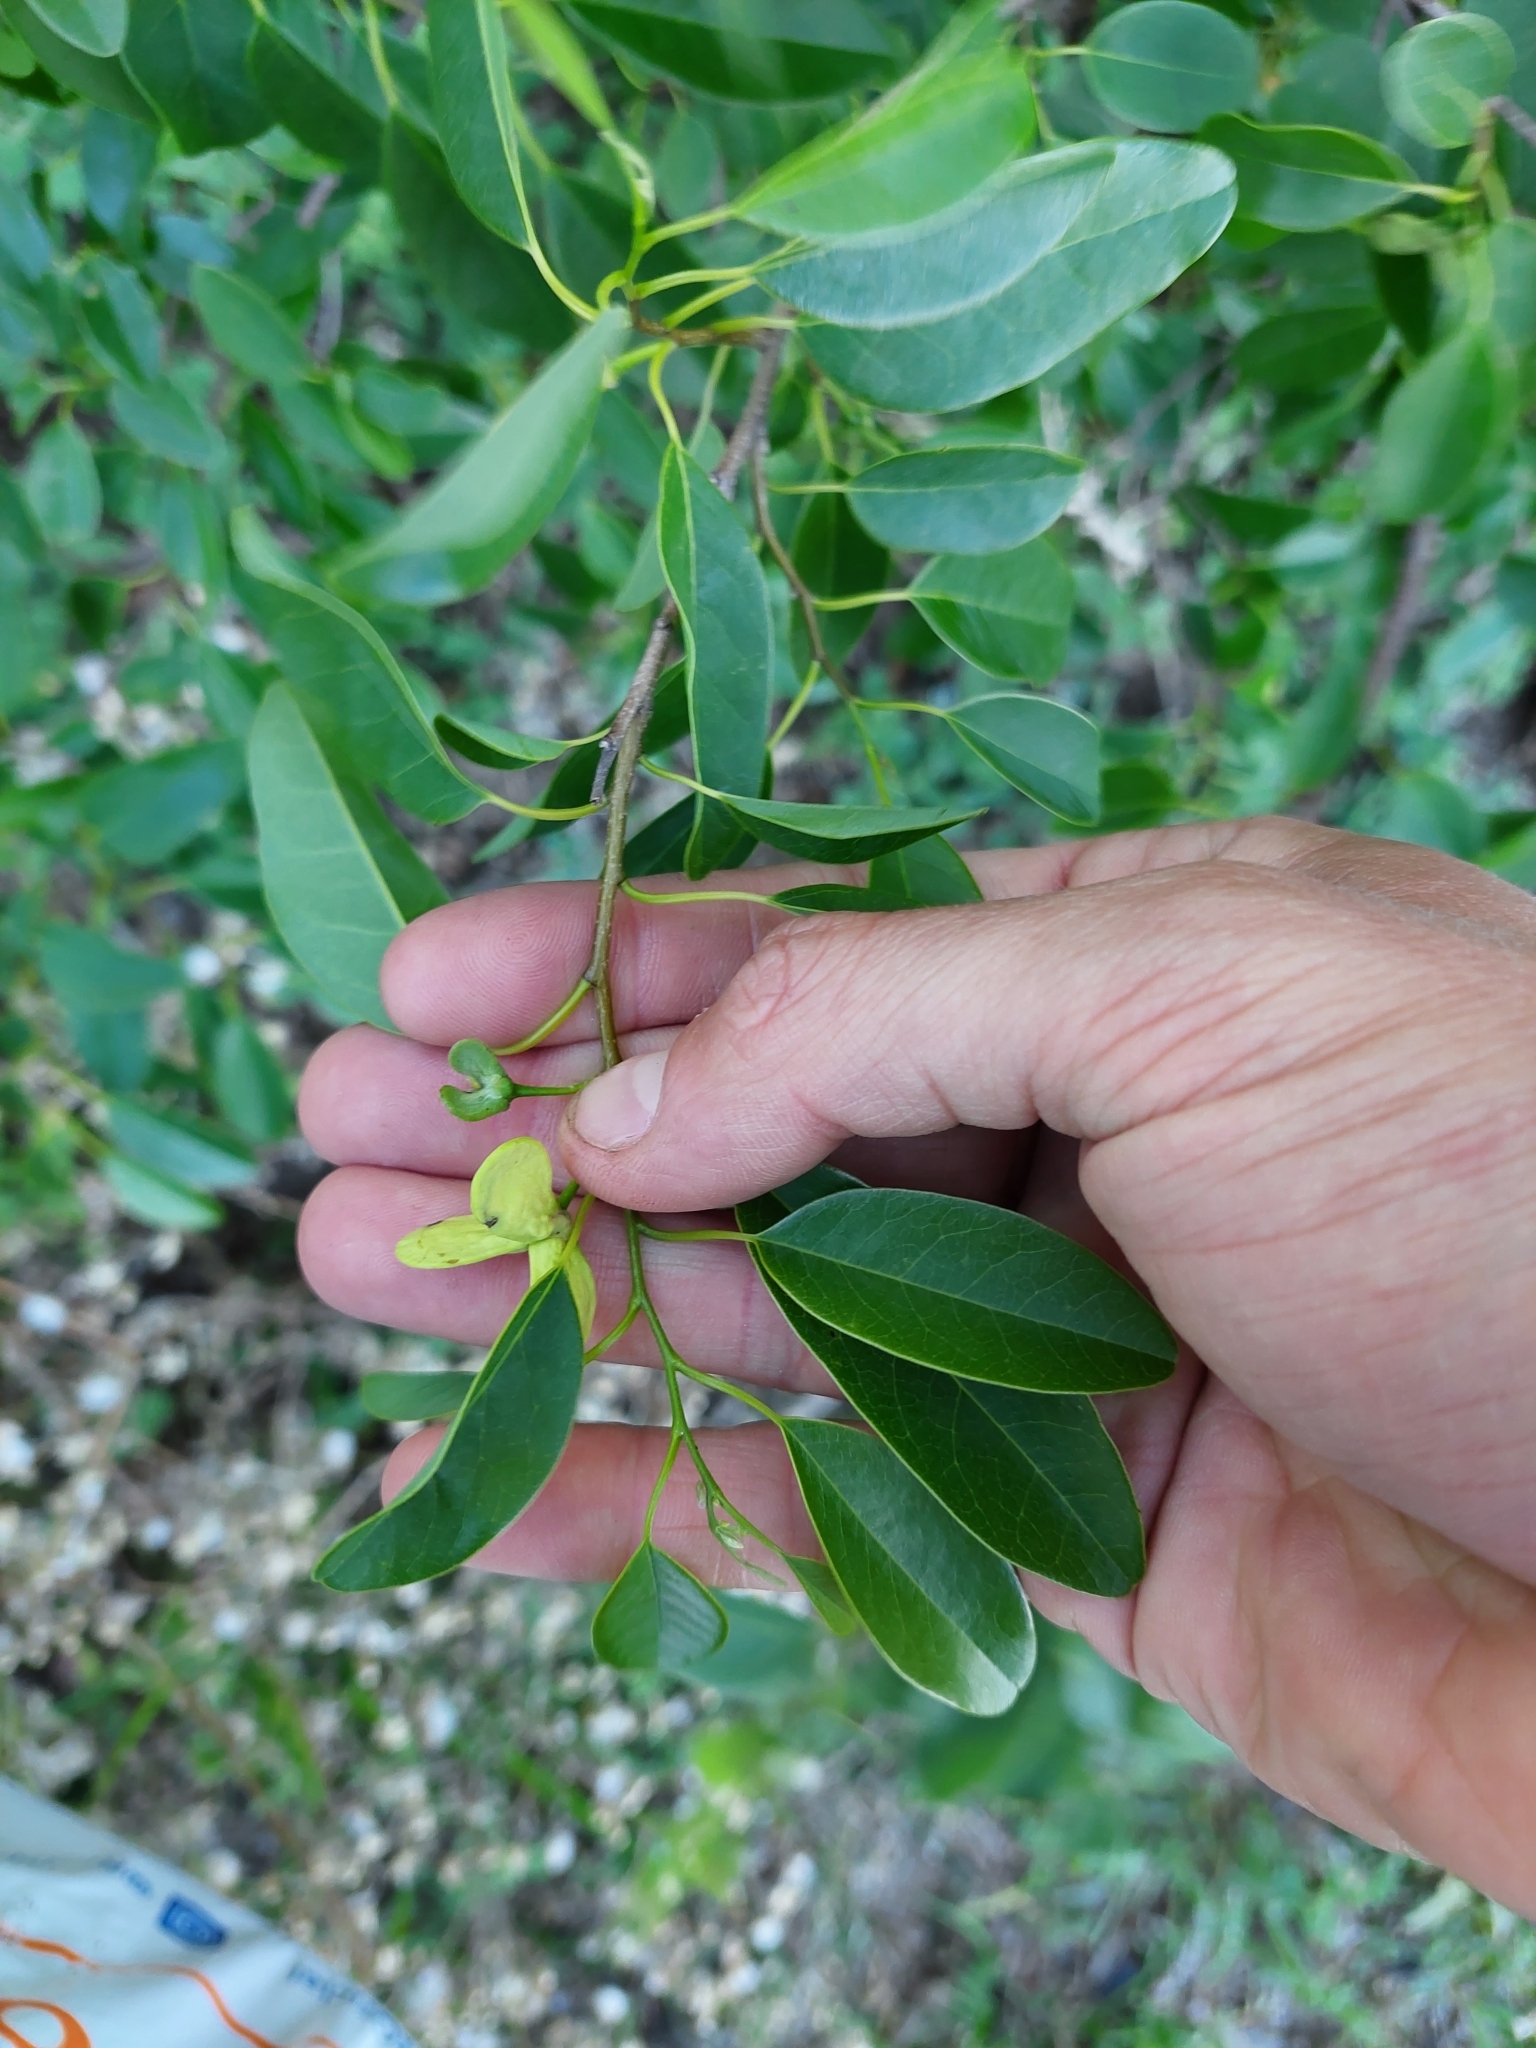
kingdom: Plantae
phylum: Tracheophyta
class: Magnoliopsida
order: Magnoliales
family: Annonaceae
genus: Annona
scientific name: Annona emarginata
